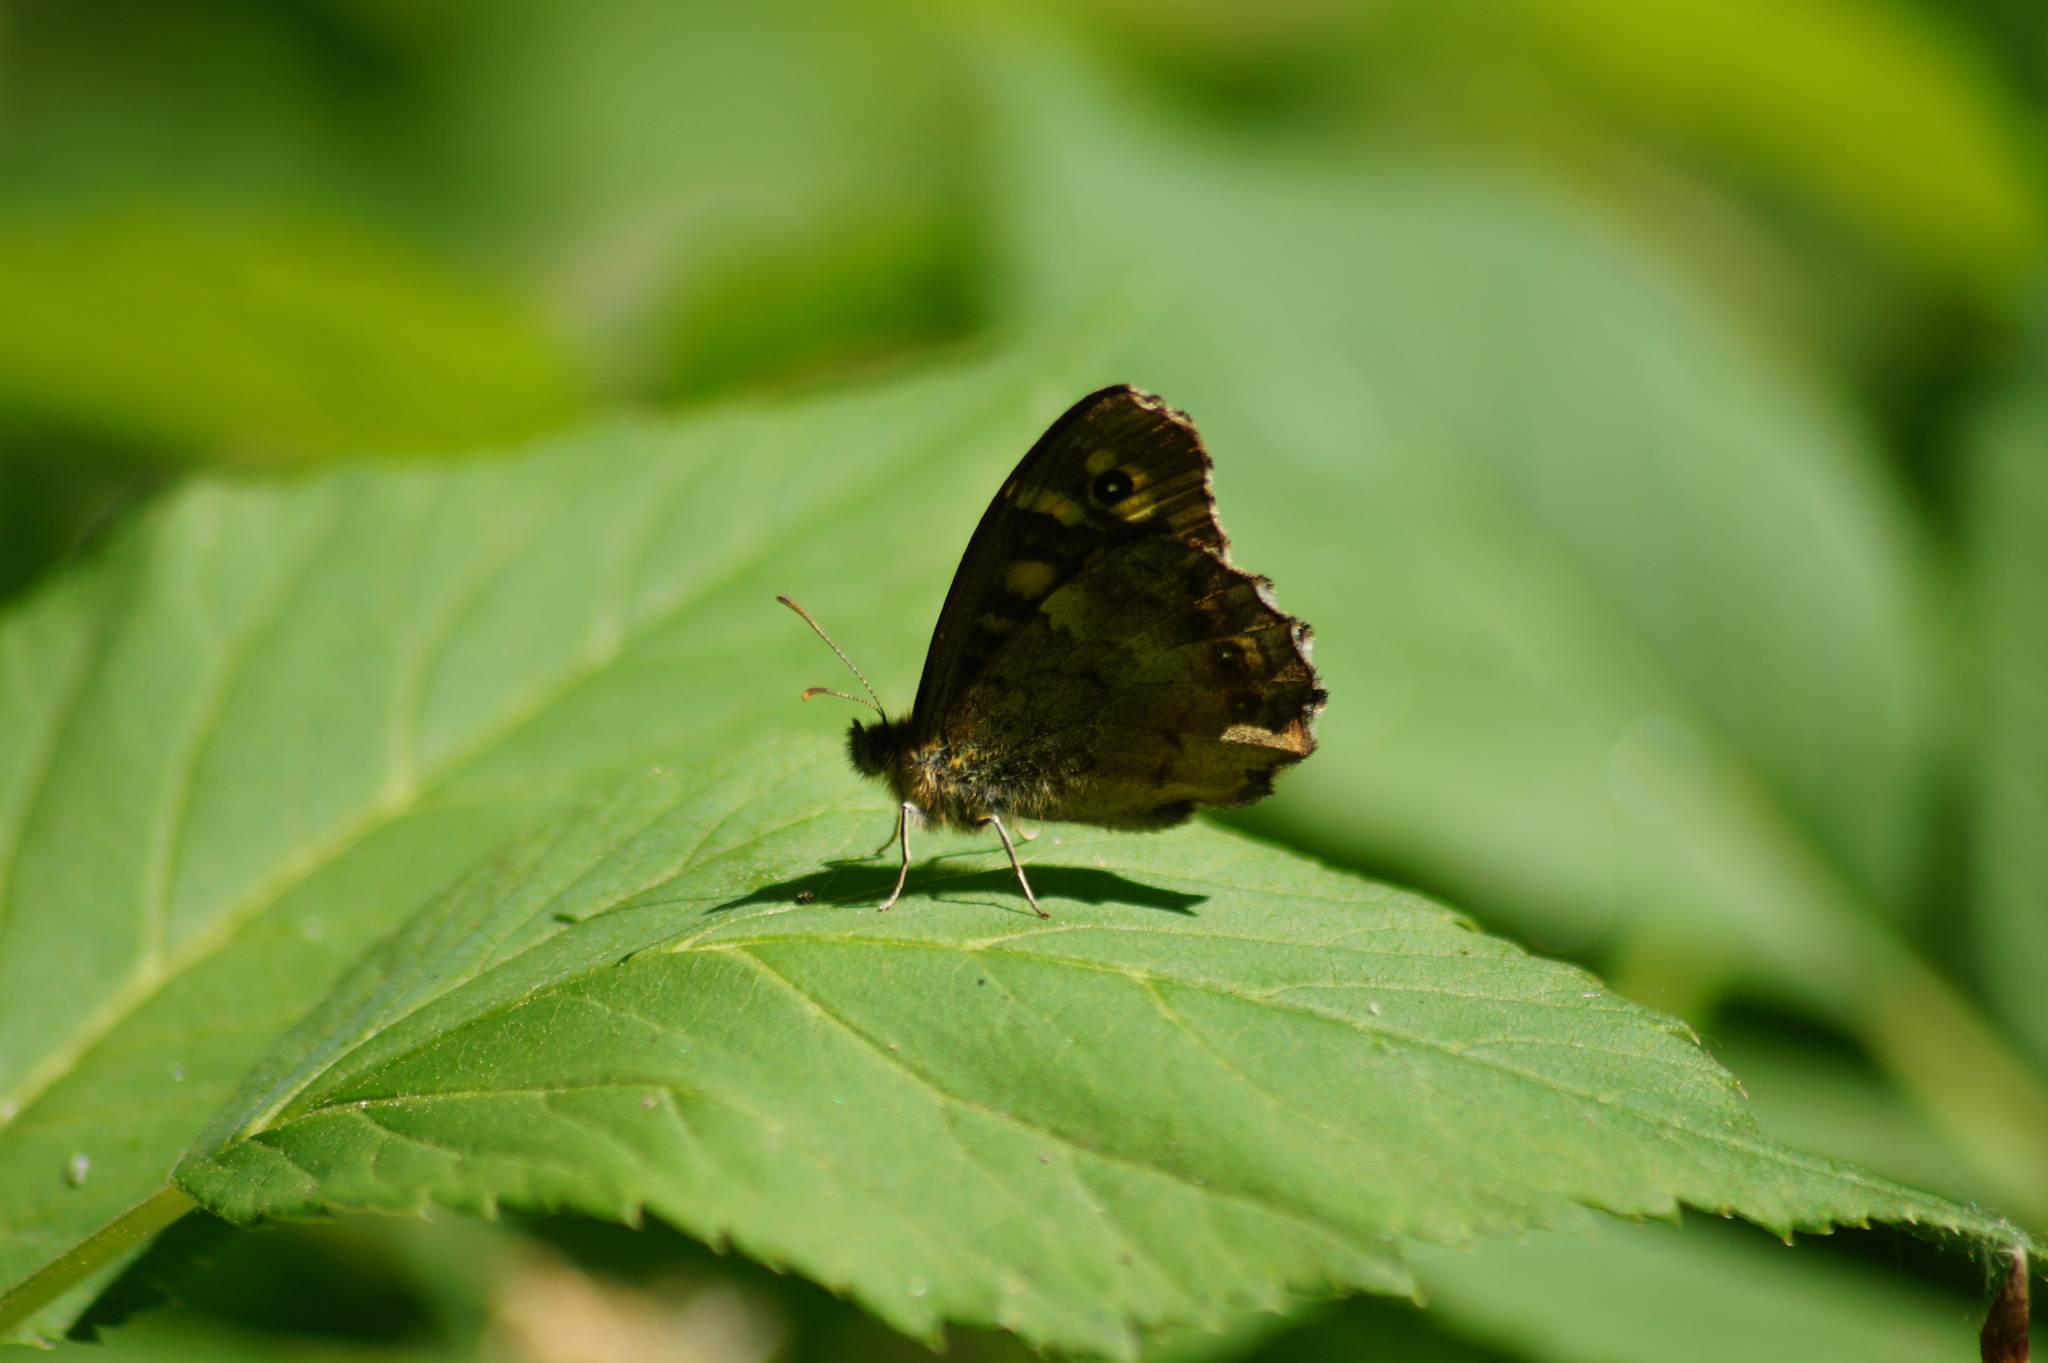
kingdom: Animalia
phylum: Arthropoda
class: Insecta
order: Lepidoptera
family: Nymphalidae
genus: Pararge
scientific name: Pararge aegeria
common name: Speckled wood
